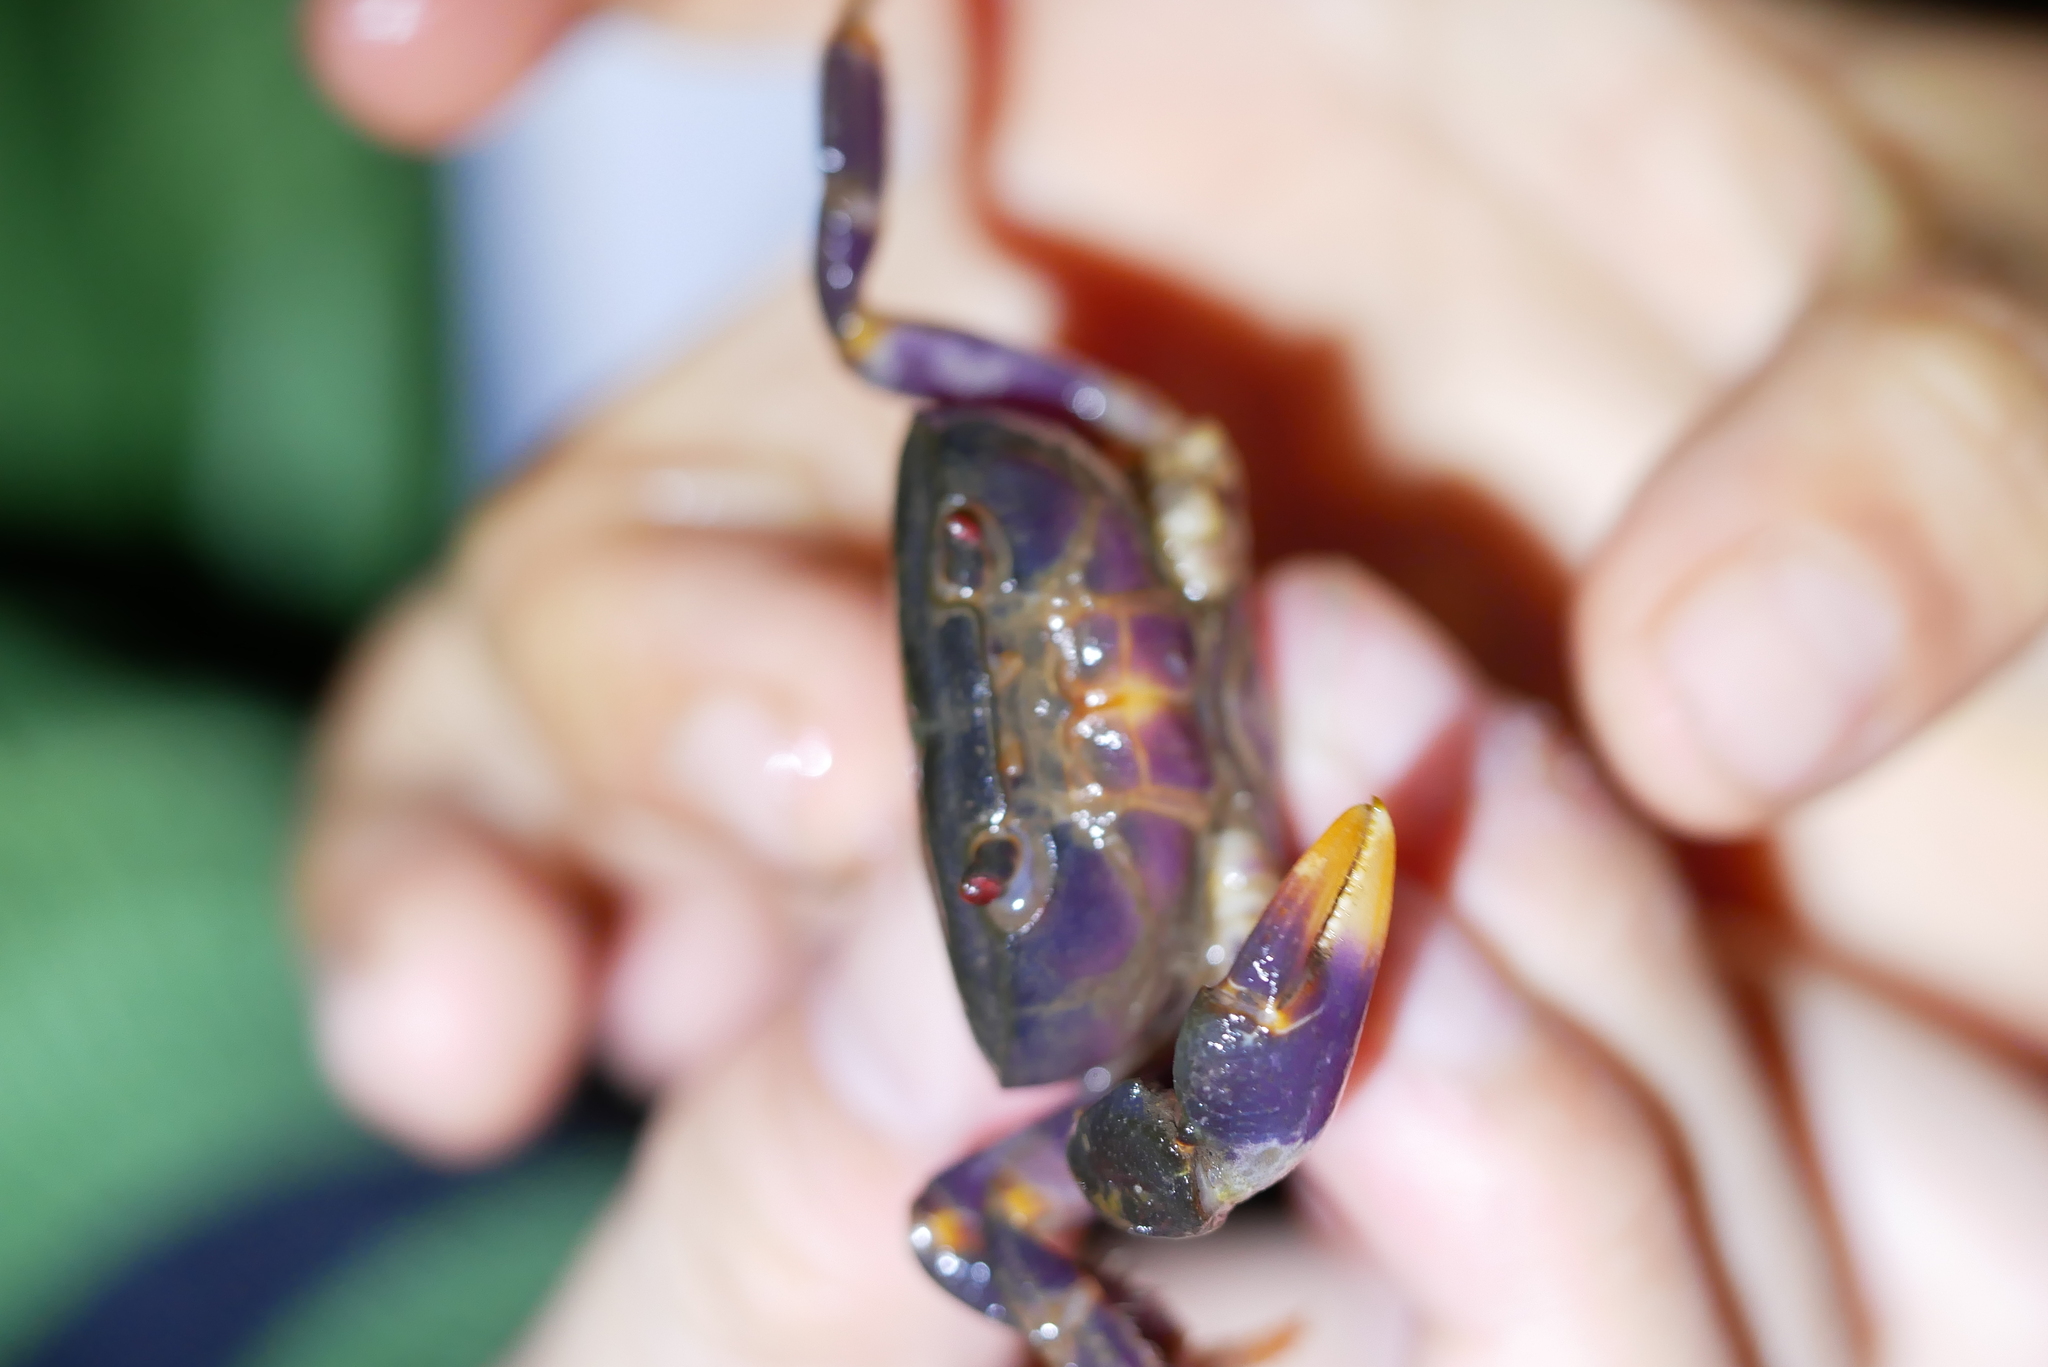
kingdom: Animalia
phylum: Arthropoda
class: Malacostraca
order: Decapoda
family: Potamidae
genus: Geothelphusa
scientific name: Geothelphusa miyazakii
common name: Miyazaki's crab
